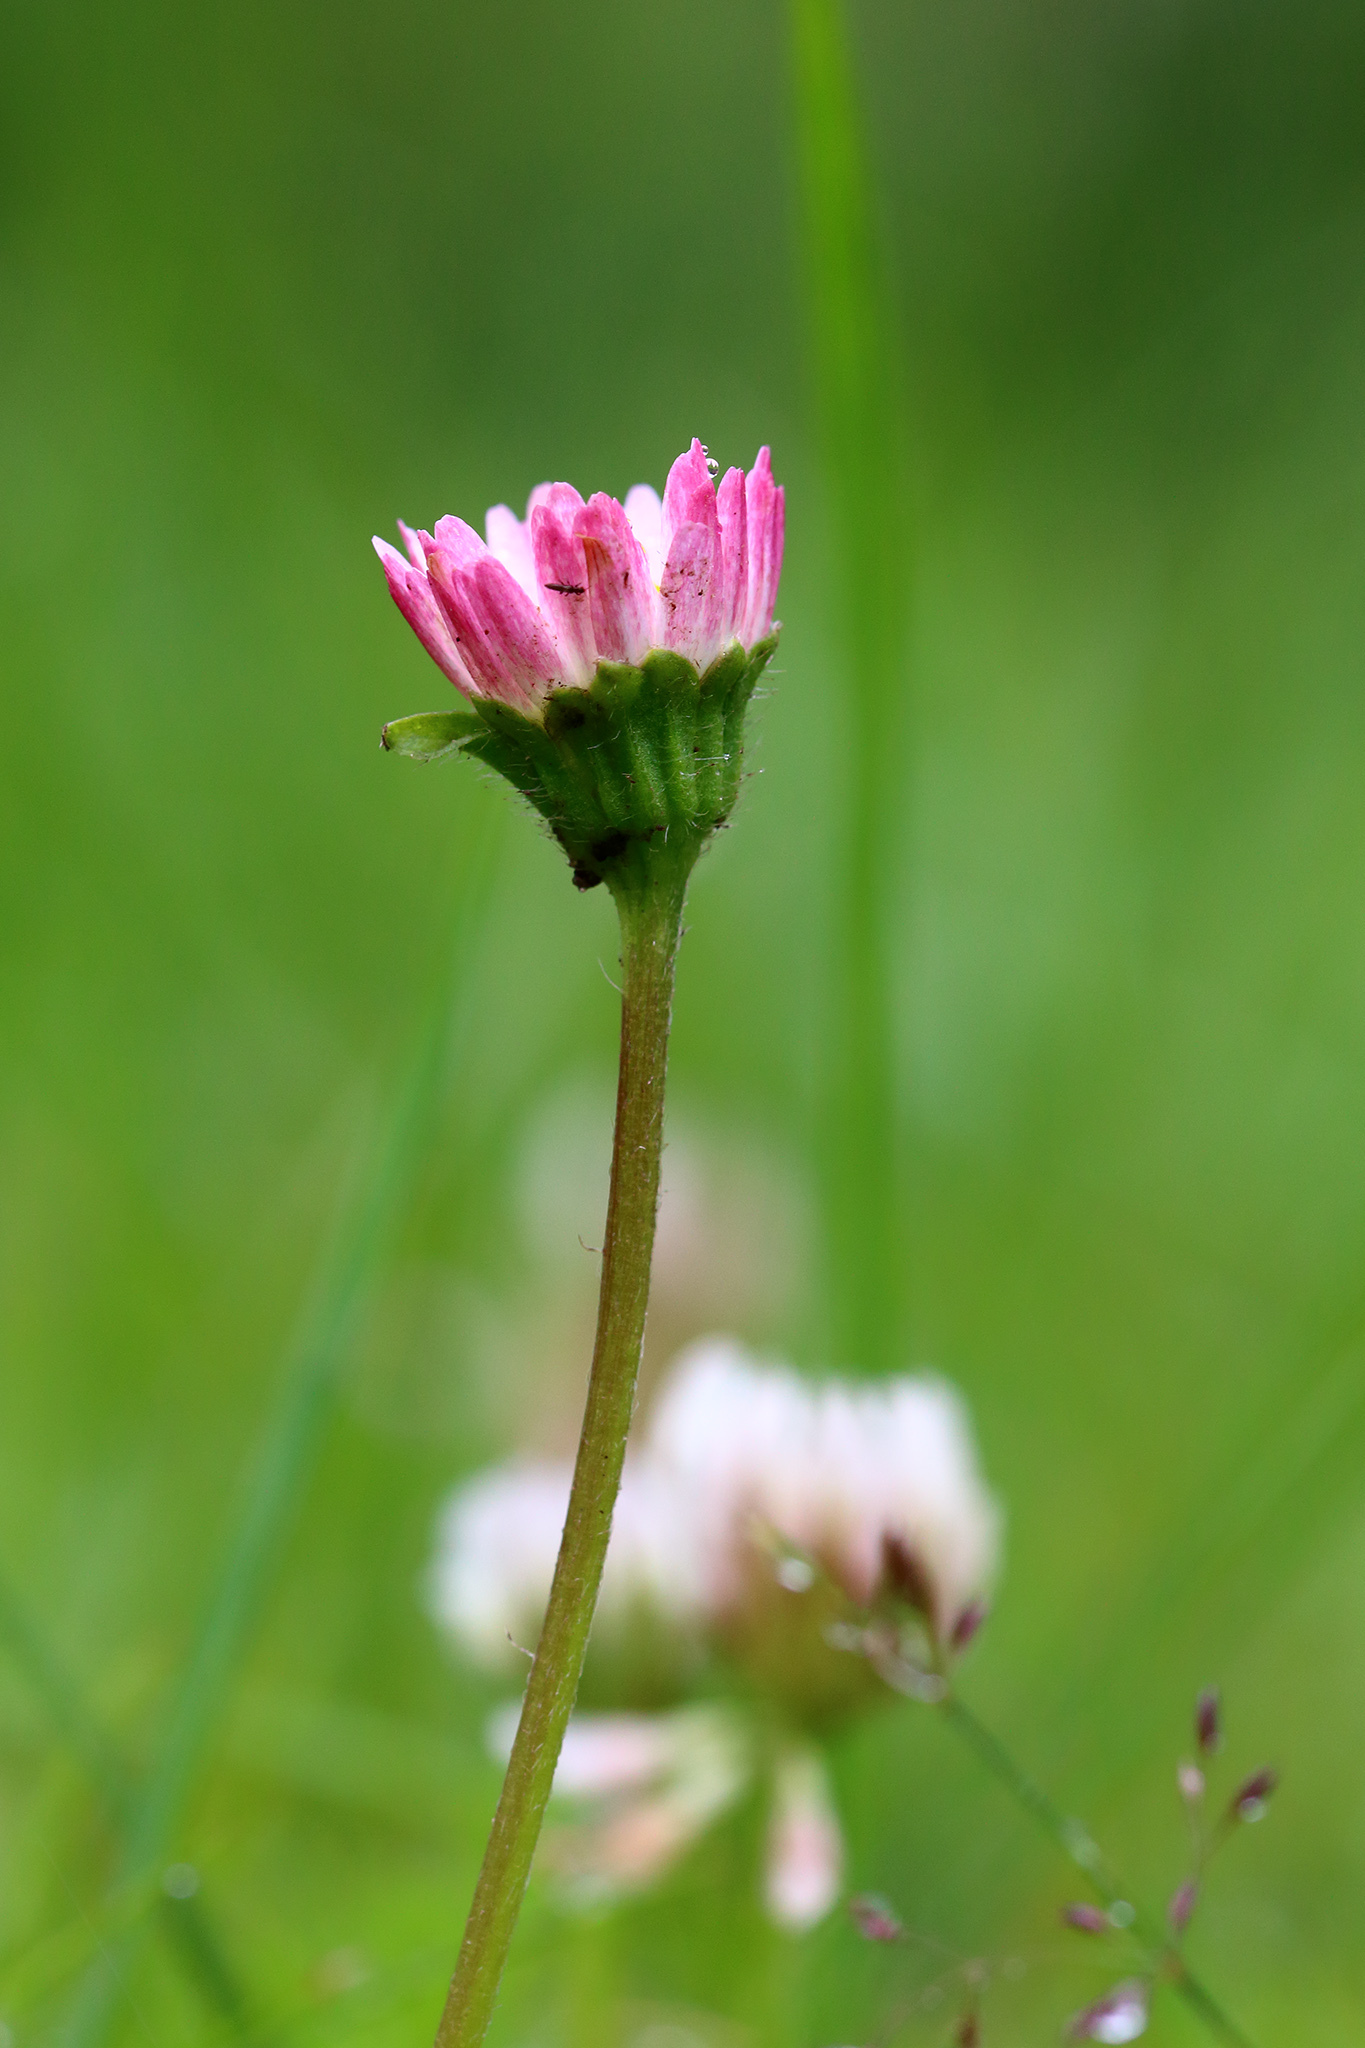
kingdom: Plantae
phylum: Tracheophyta
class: Magnoliopsida
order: Asterales
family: Asteraceae
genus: Bellis
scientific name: Bellis perennis
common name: Lawndaisy
